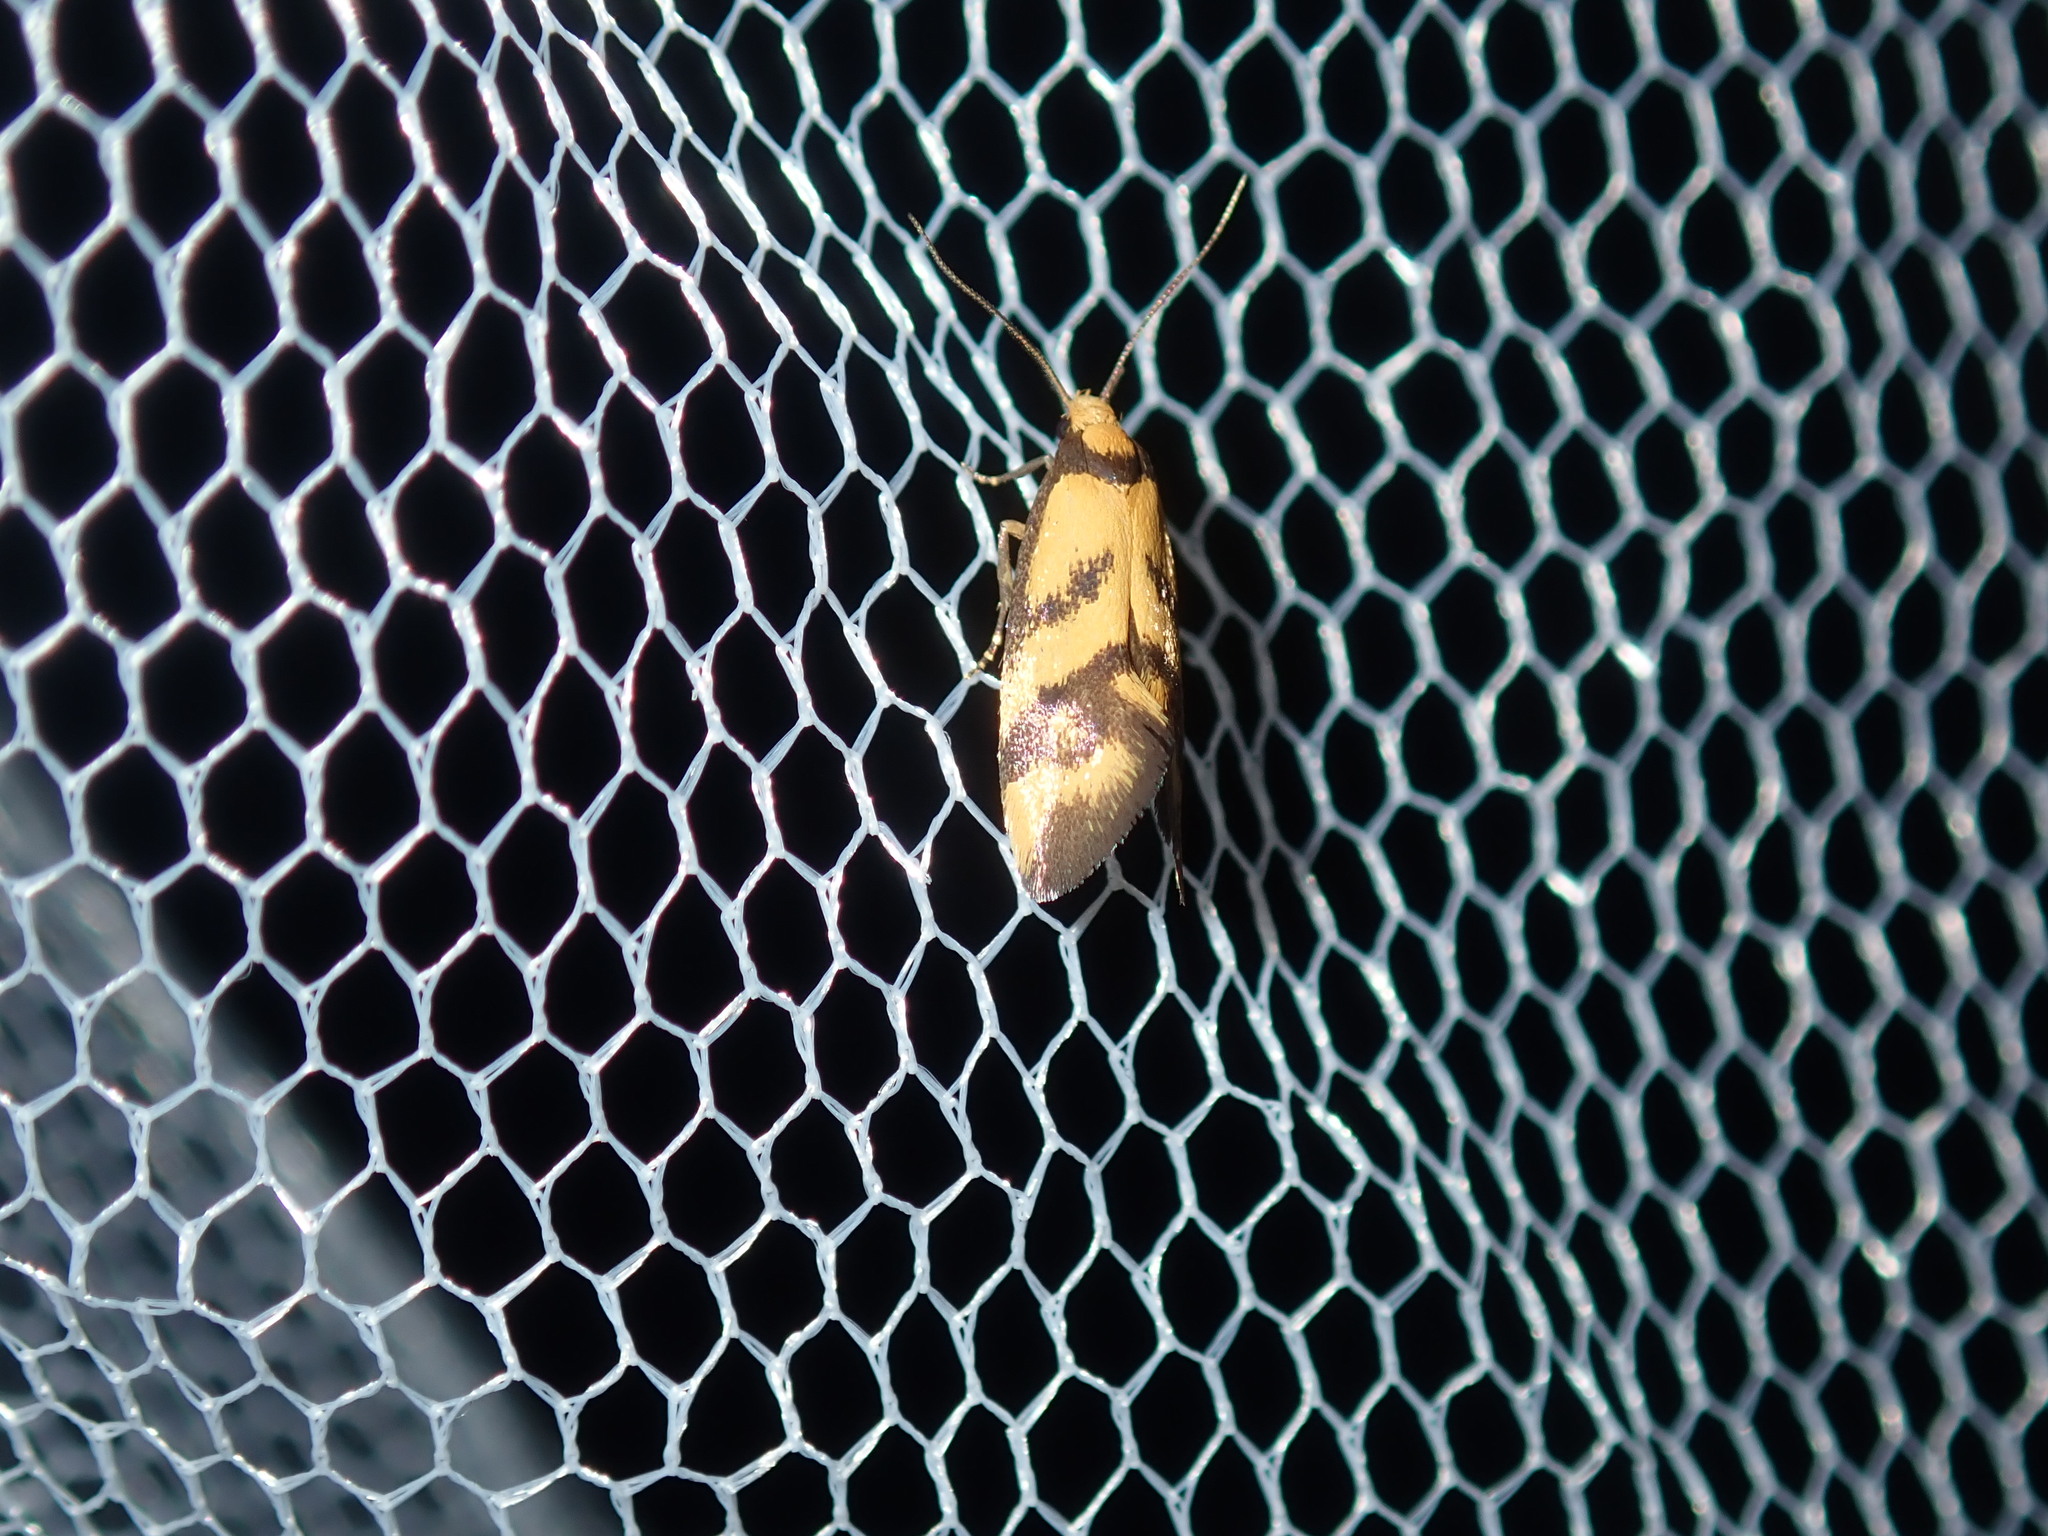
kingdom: Animalia
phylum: Arthropoda
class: Insecta
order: Lepidoptera
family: Oecophoridae
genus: Olbonoma
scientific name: Olbonoma triptycha
